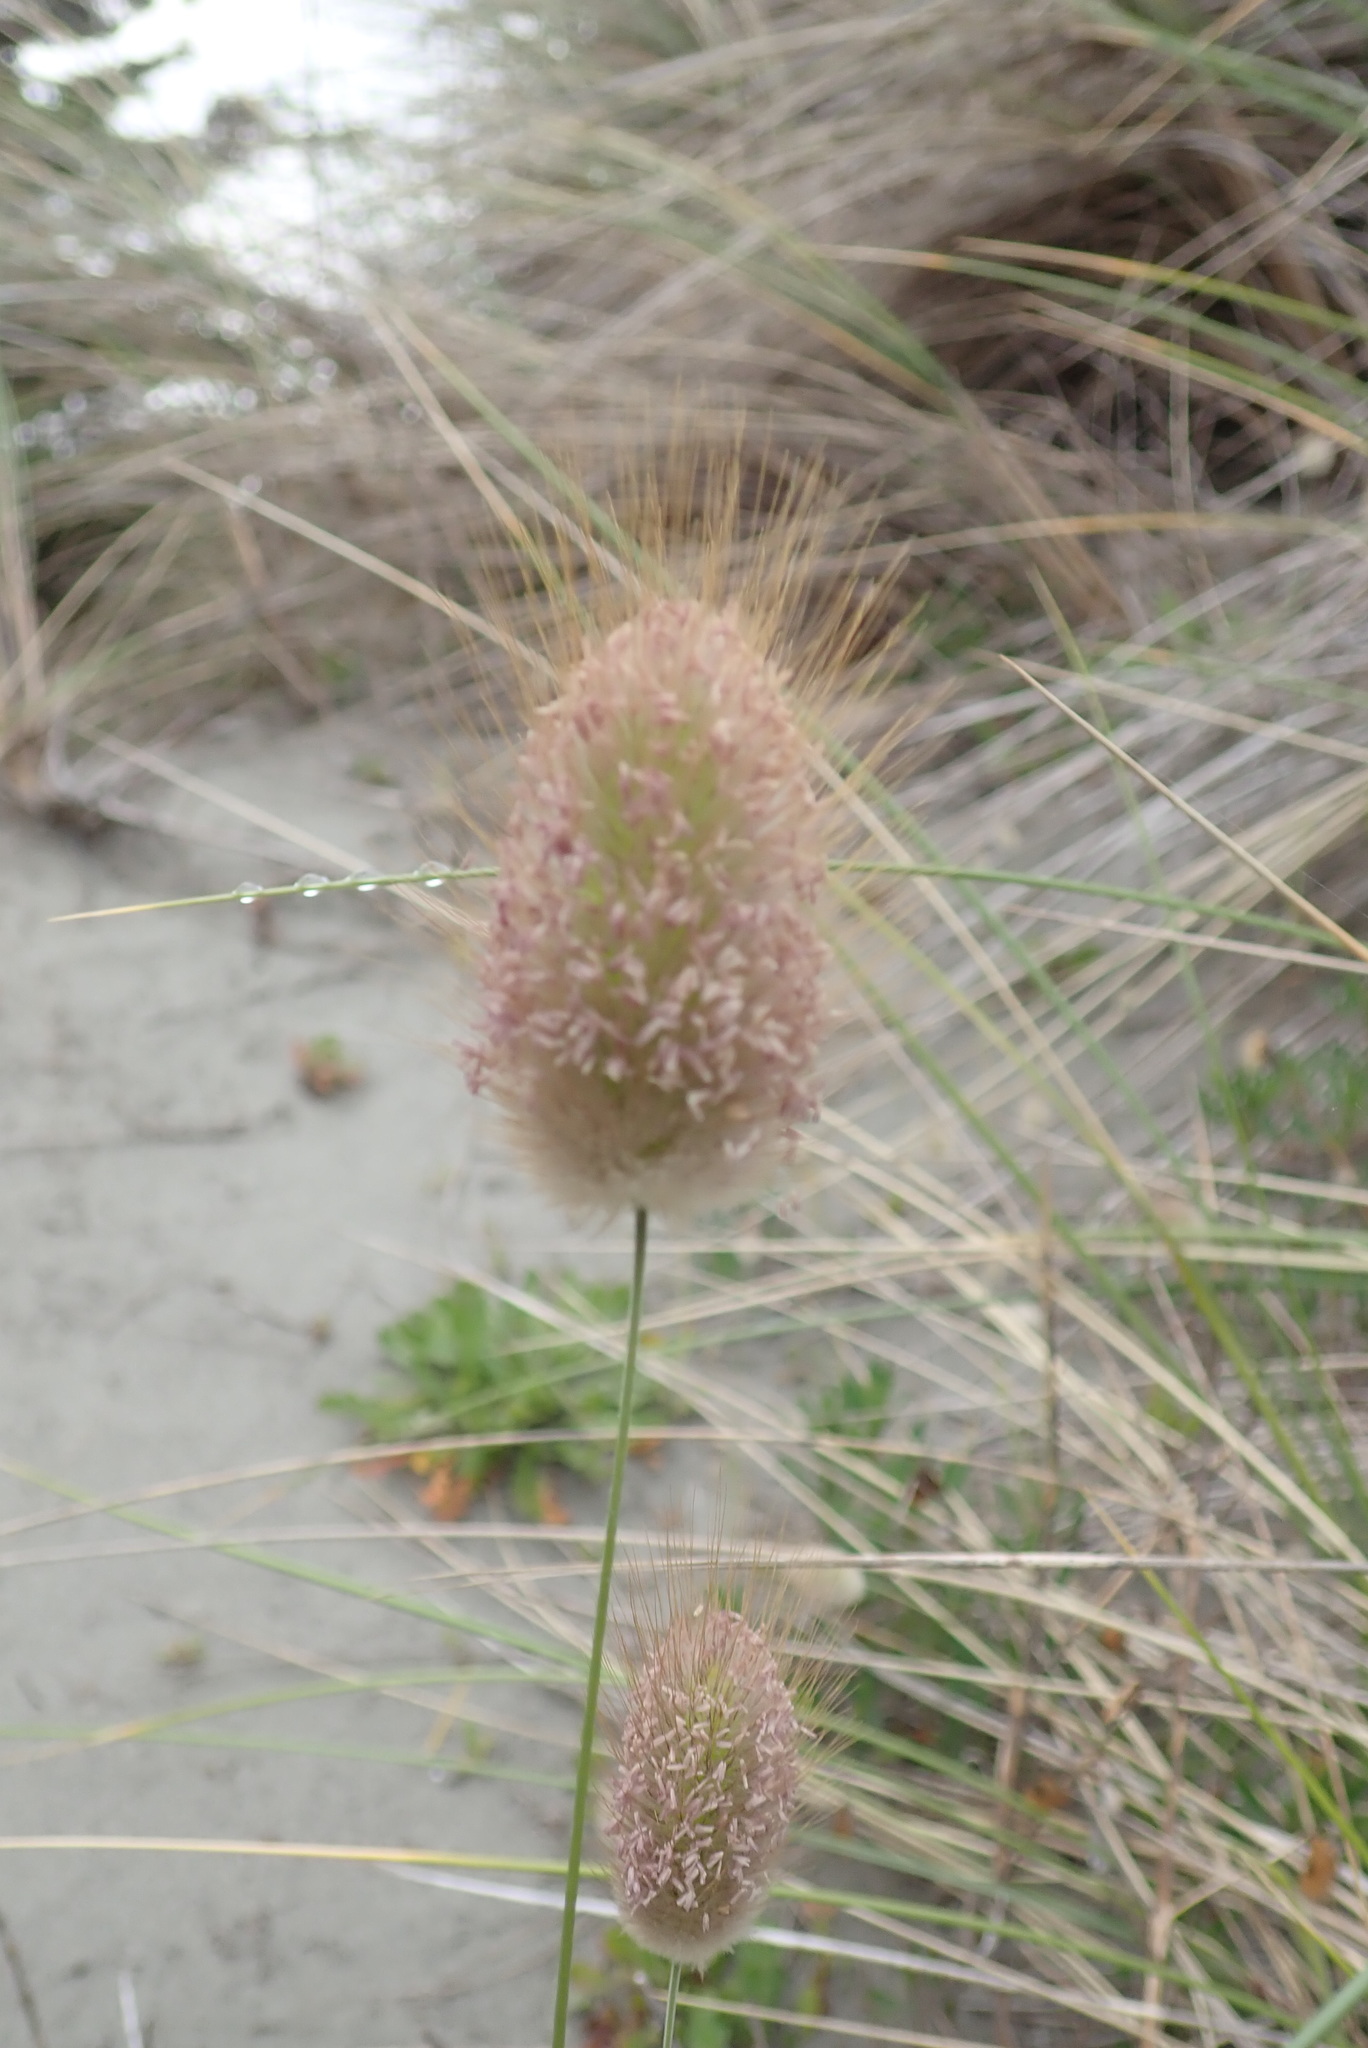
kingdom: Plantae
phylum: Tracheophyta
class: Liliopsida
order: Poales
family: Poaceae
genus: Lagurus
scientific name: Lagurus ovatus
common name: Hare's-tail
